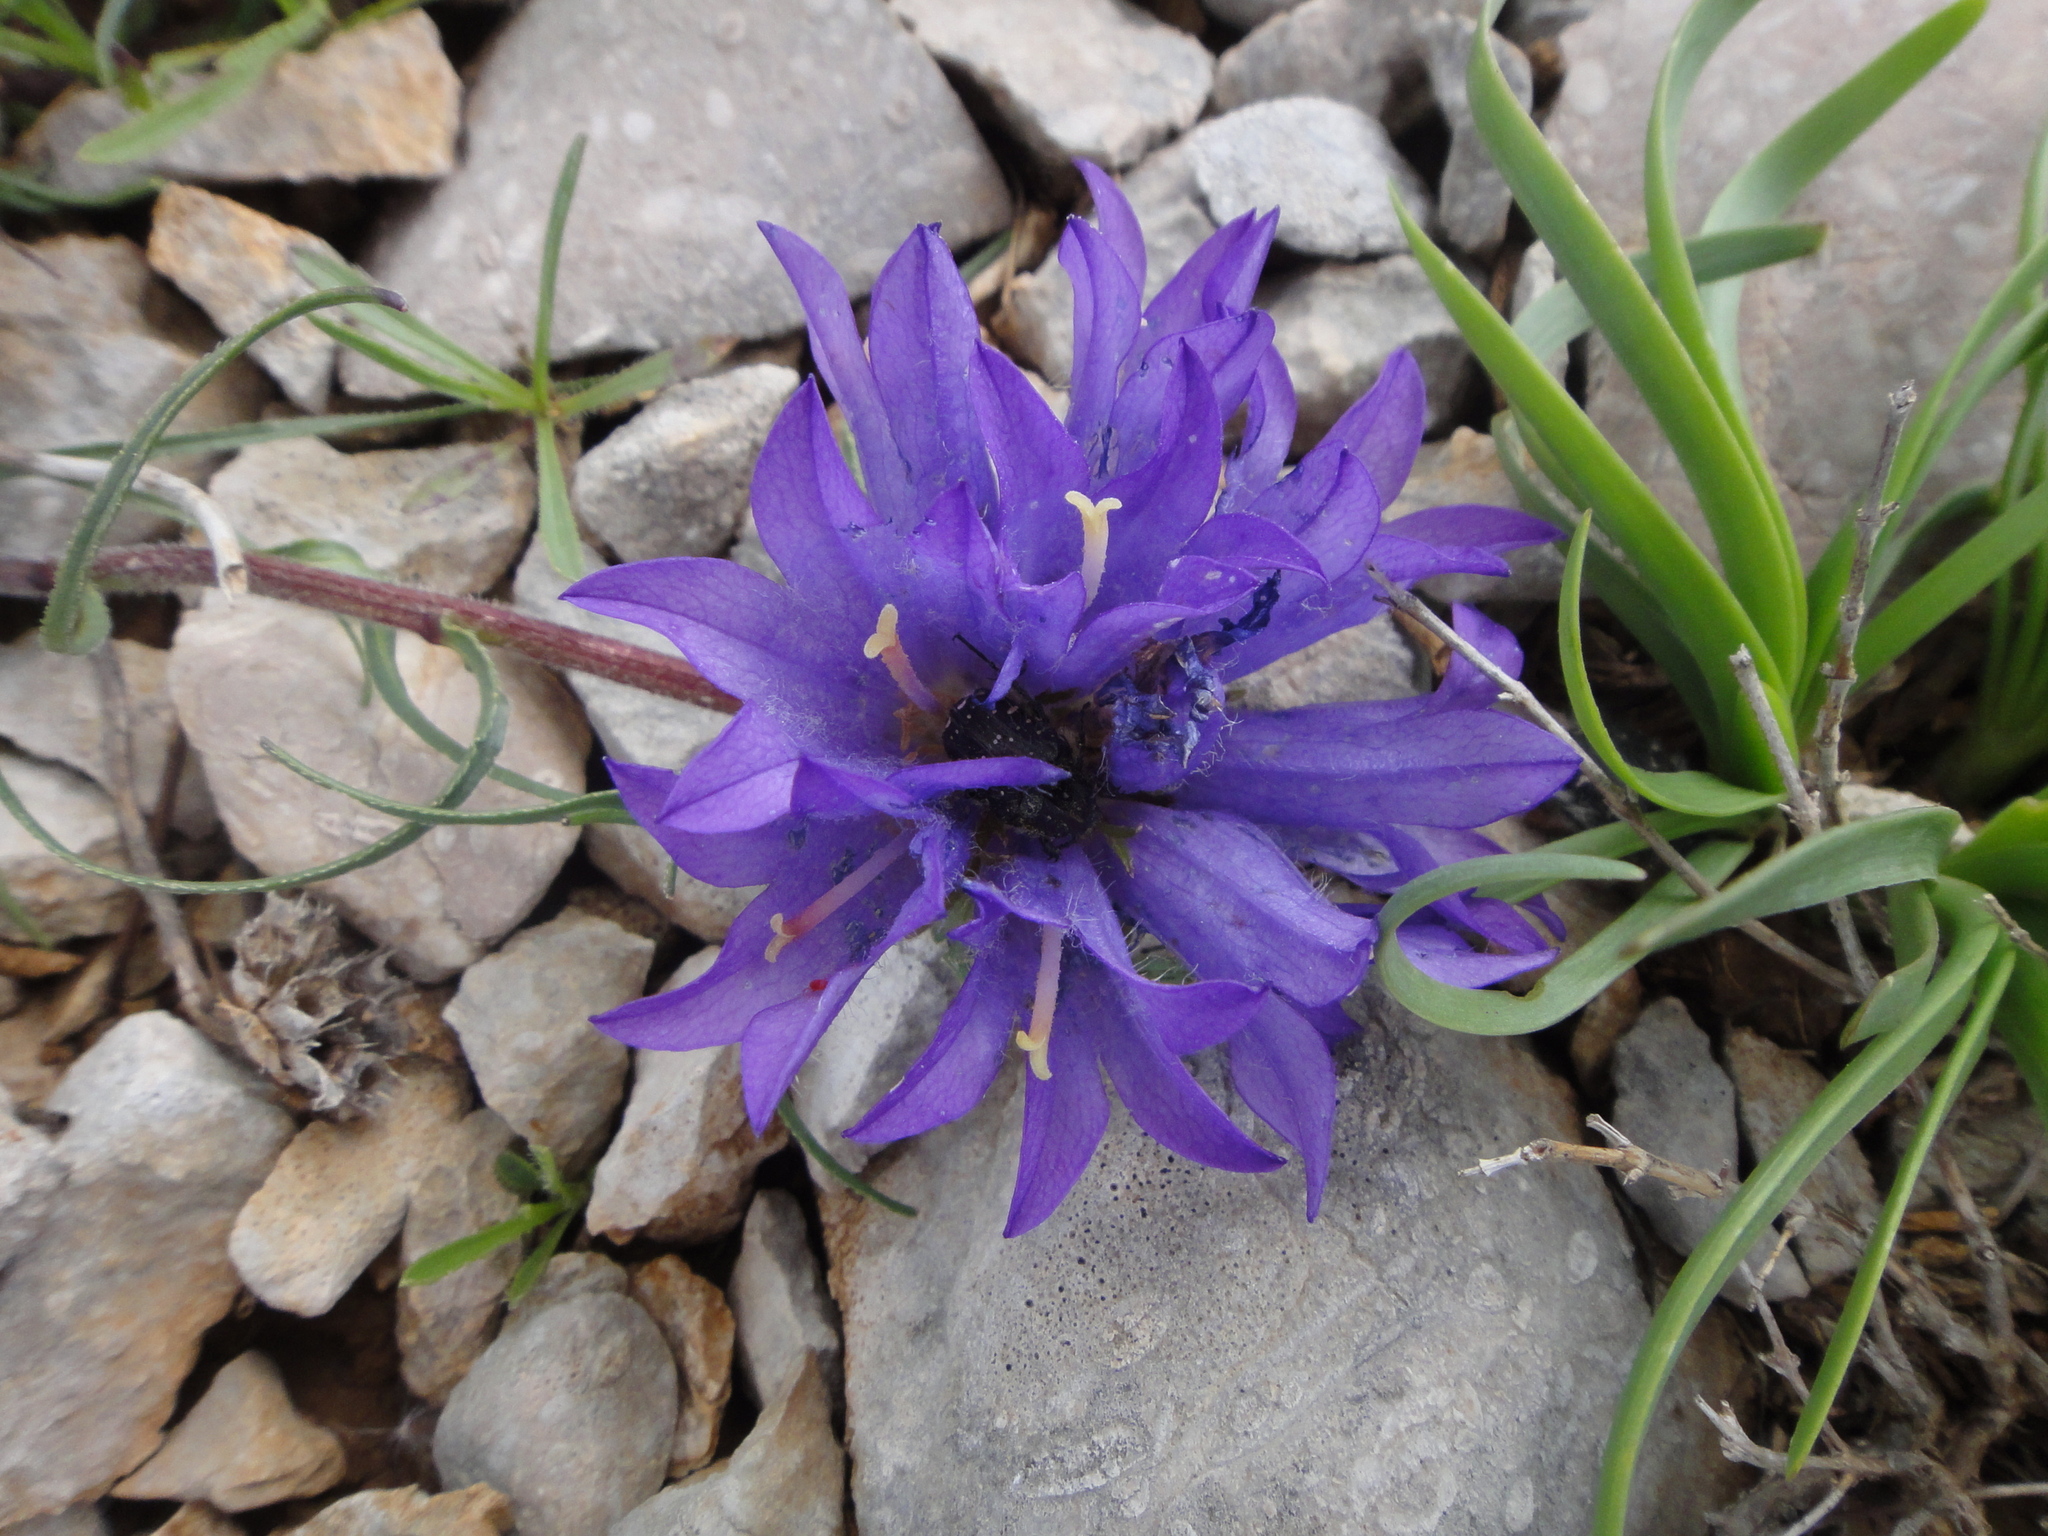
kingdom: Plantae
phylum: Tracheophyta
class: Magnoliopsida
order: Asterales
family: Campanulaceae
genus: Edraianthus
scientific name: Edraianthus tenuifolius
